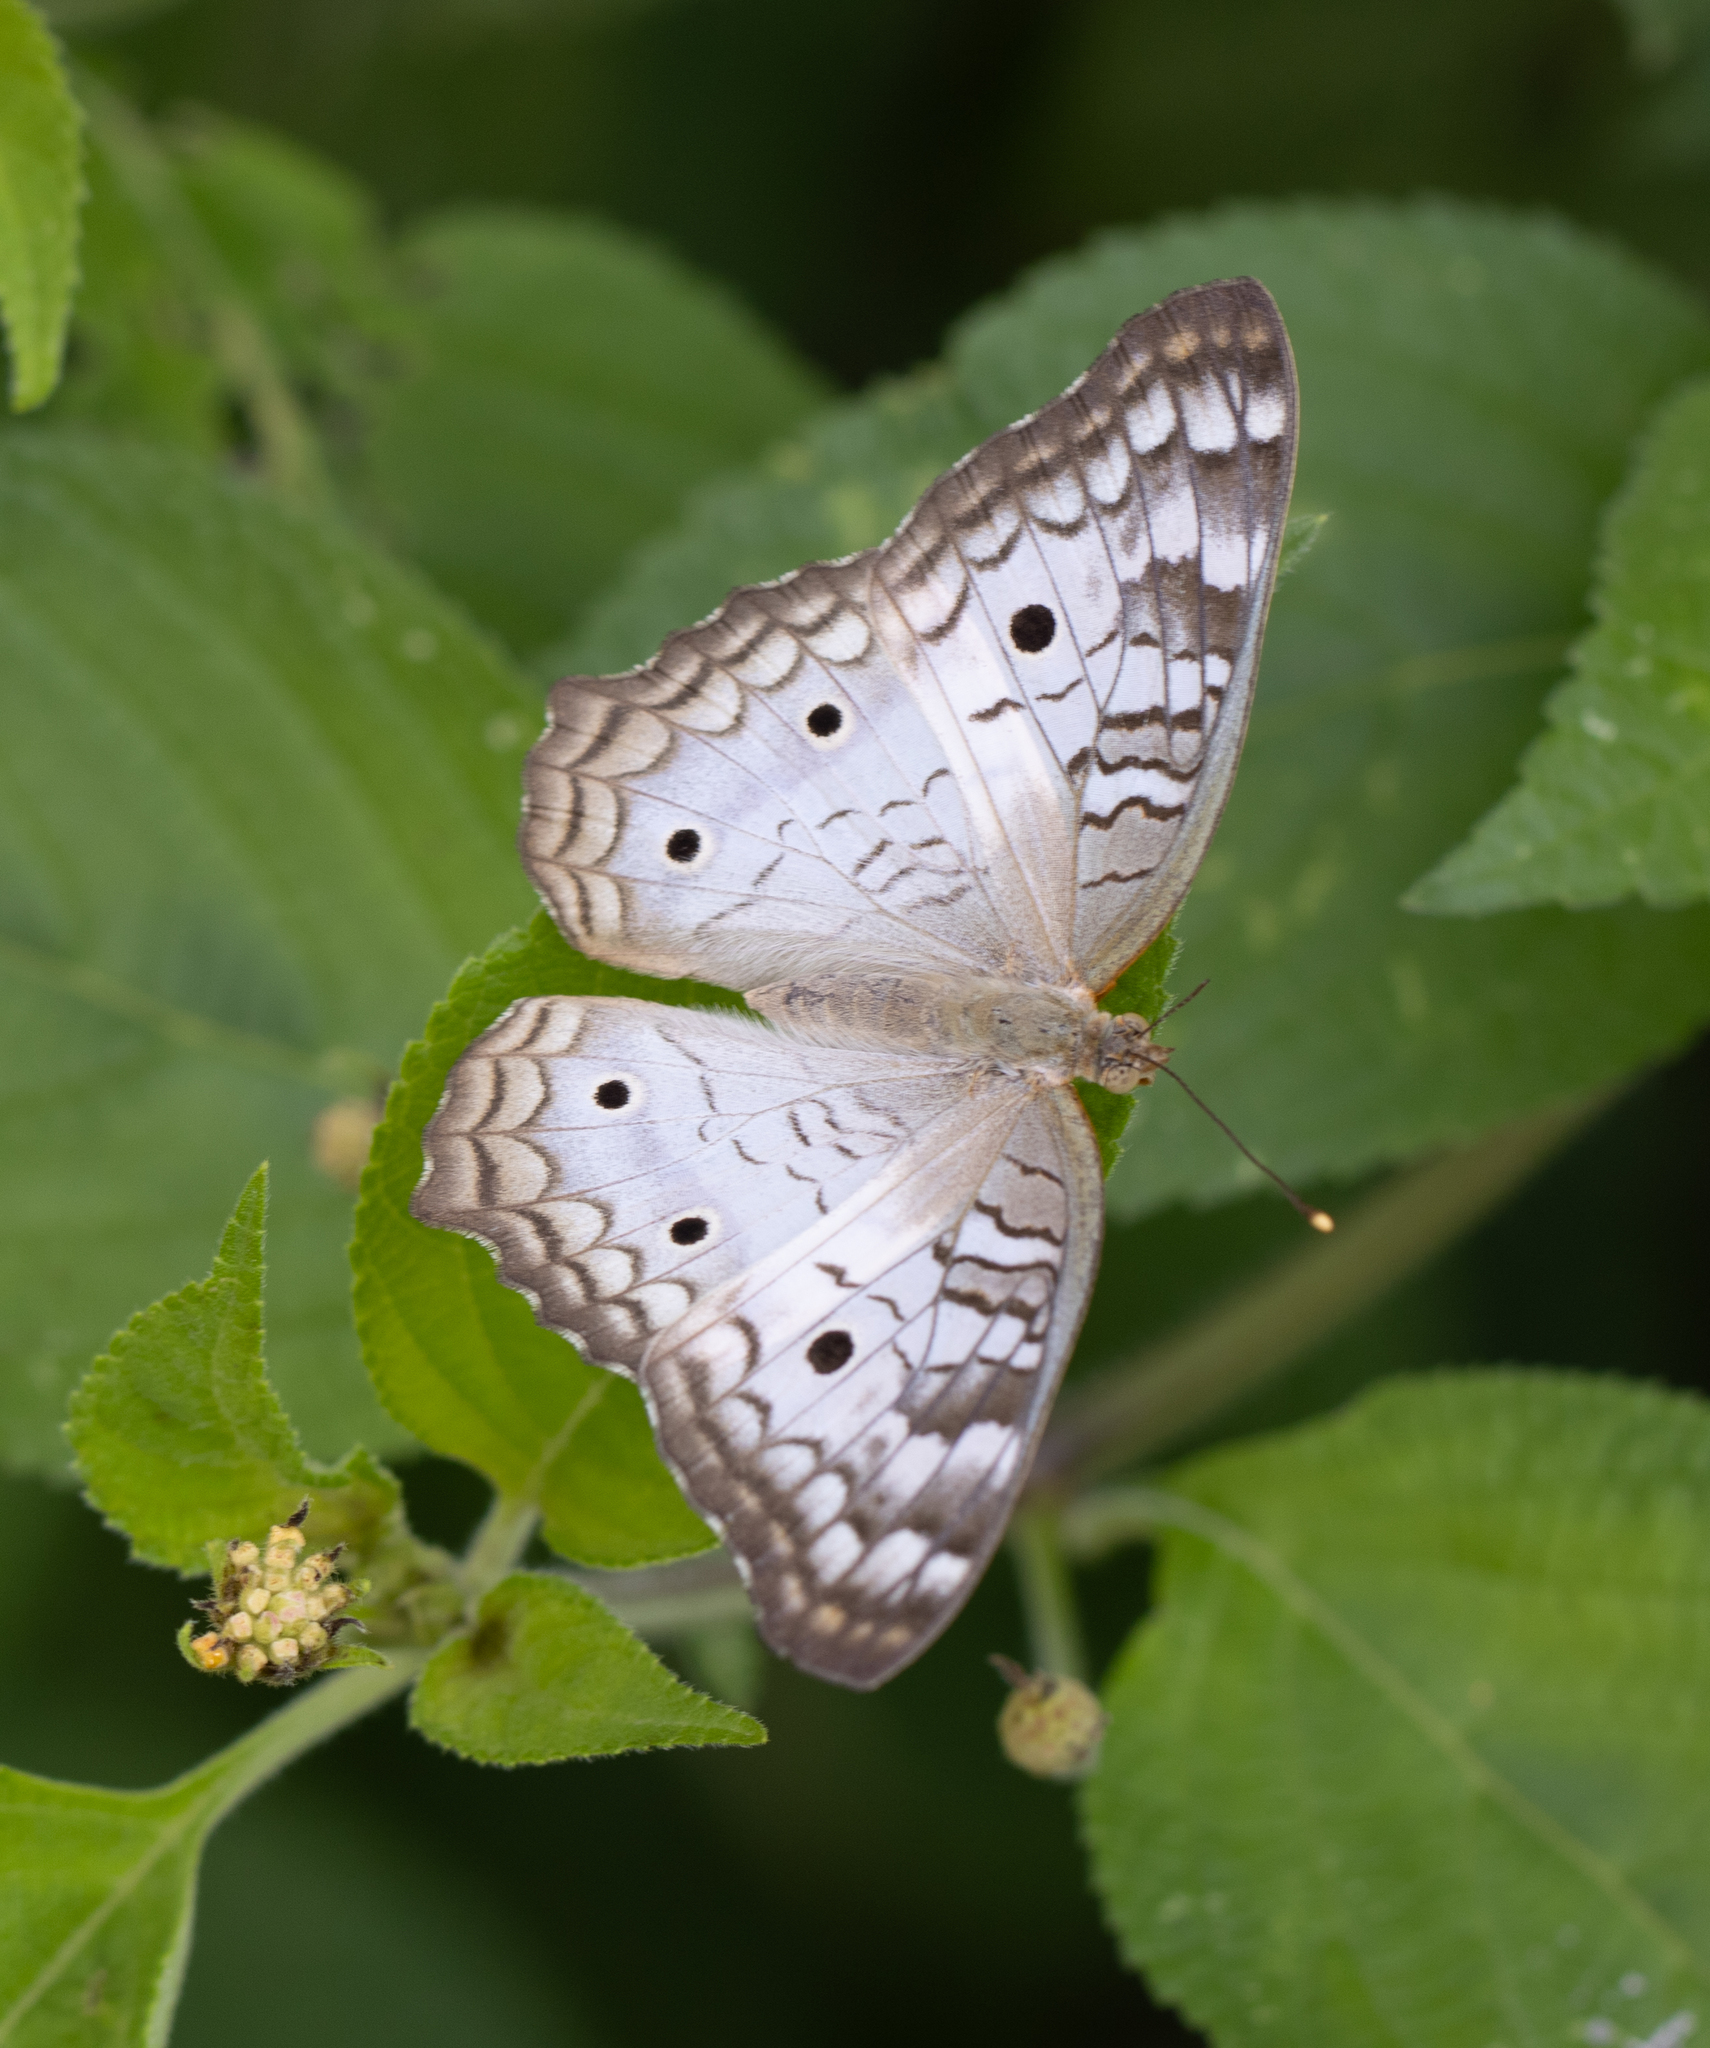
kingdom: Animalia
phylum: Arthropoda
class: Insecta
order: Lepidoptera
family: Nymphalidae
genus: Anartia
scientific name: Anartia jatrophae
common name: White peacock
